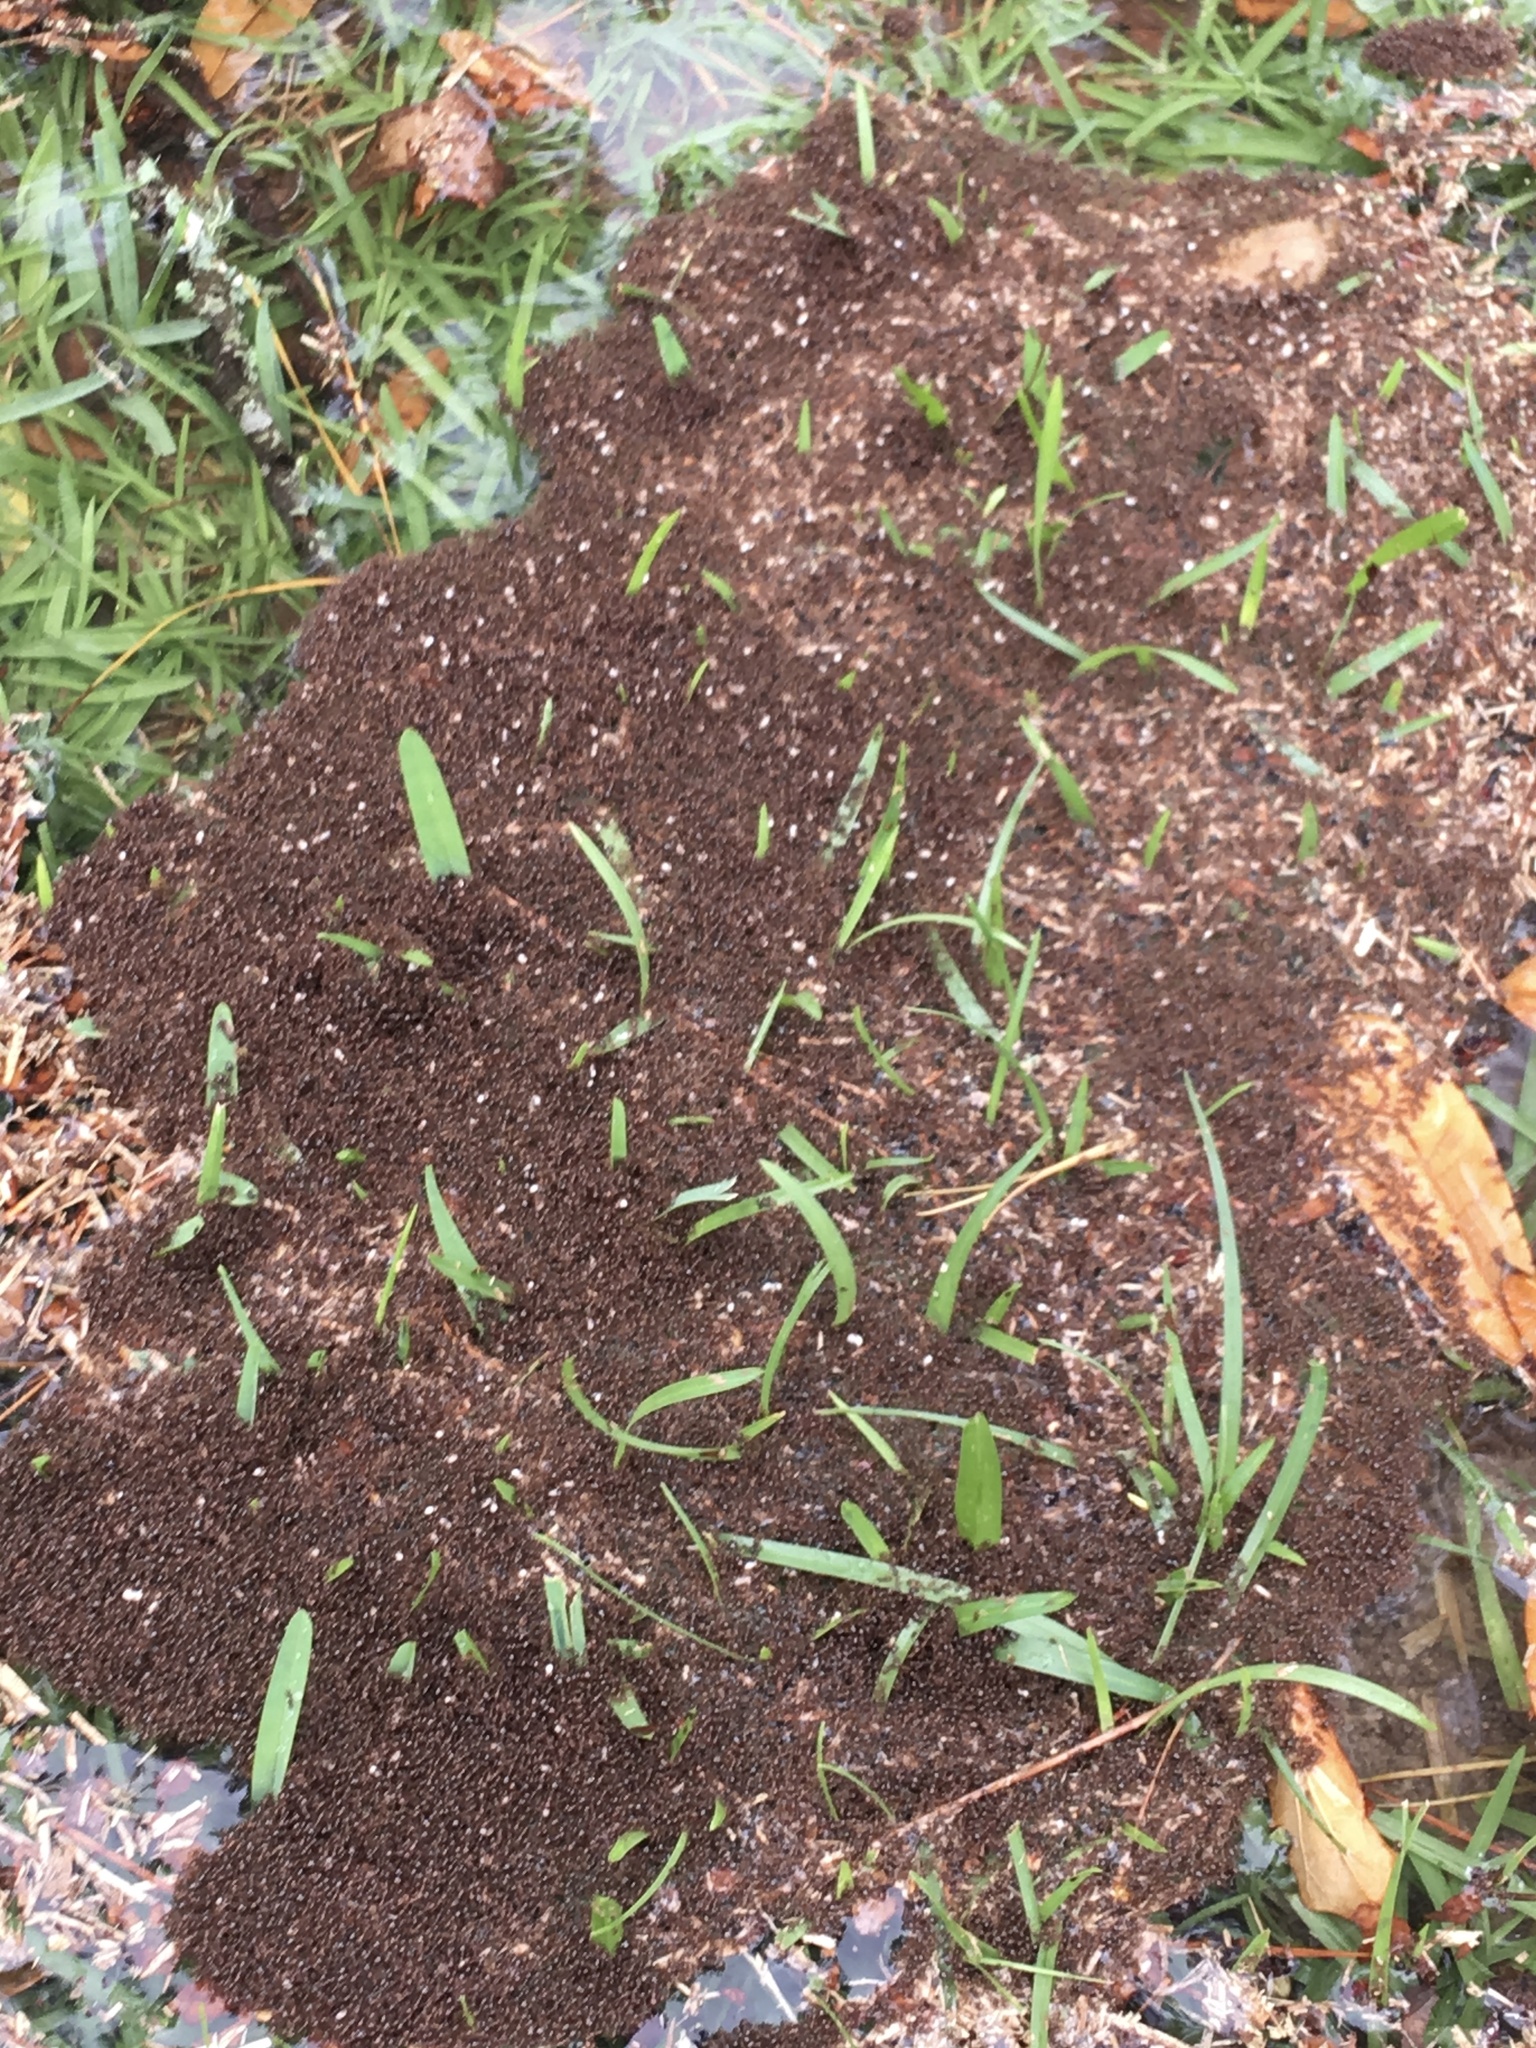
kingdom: Animalia
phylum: Arthropoda
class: Insecta
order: Hymenoptera
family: Formicidae
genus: Solenopsis
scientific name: Solenopsis invicta
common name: Red imported fire ant
